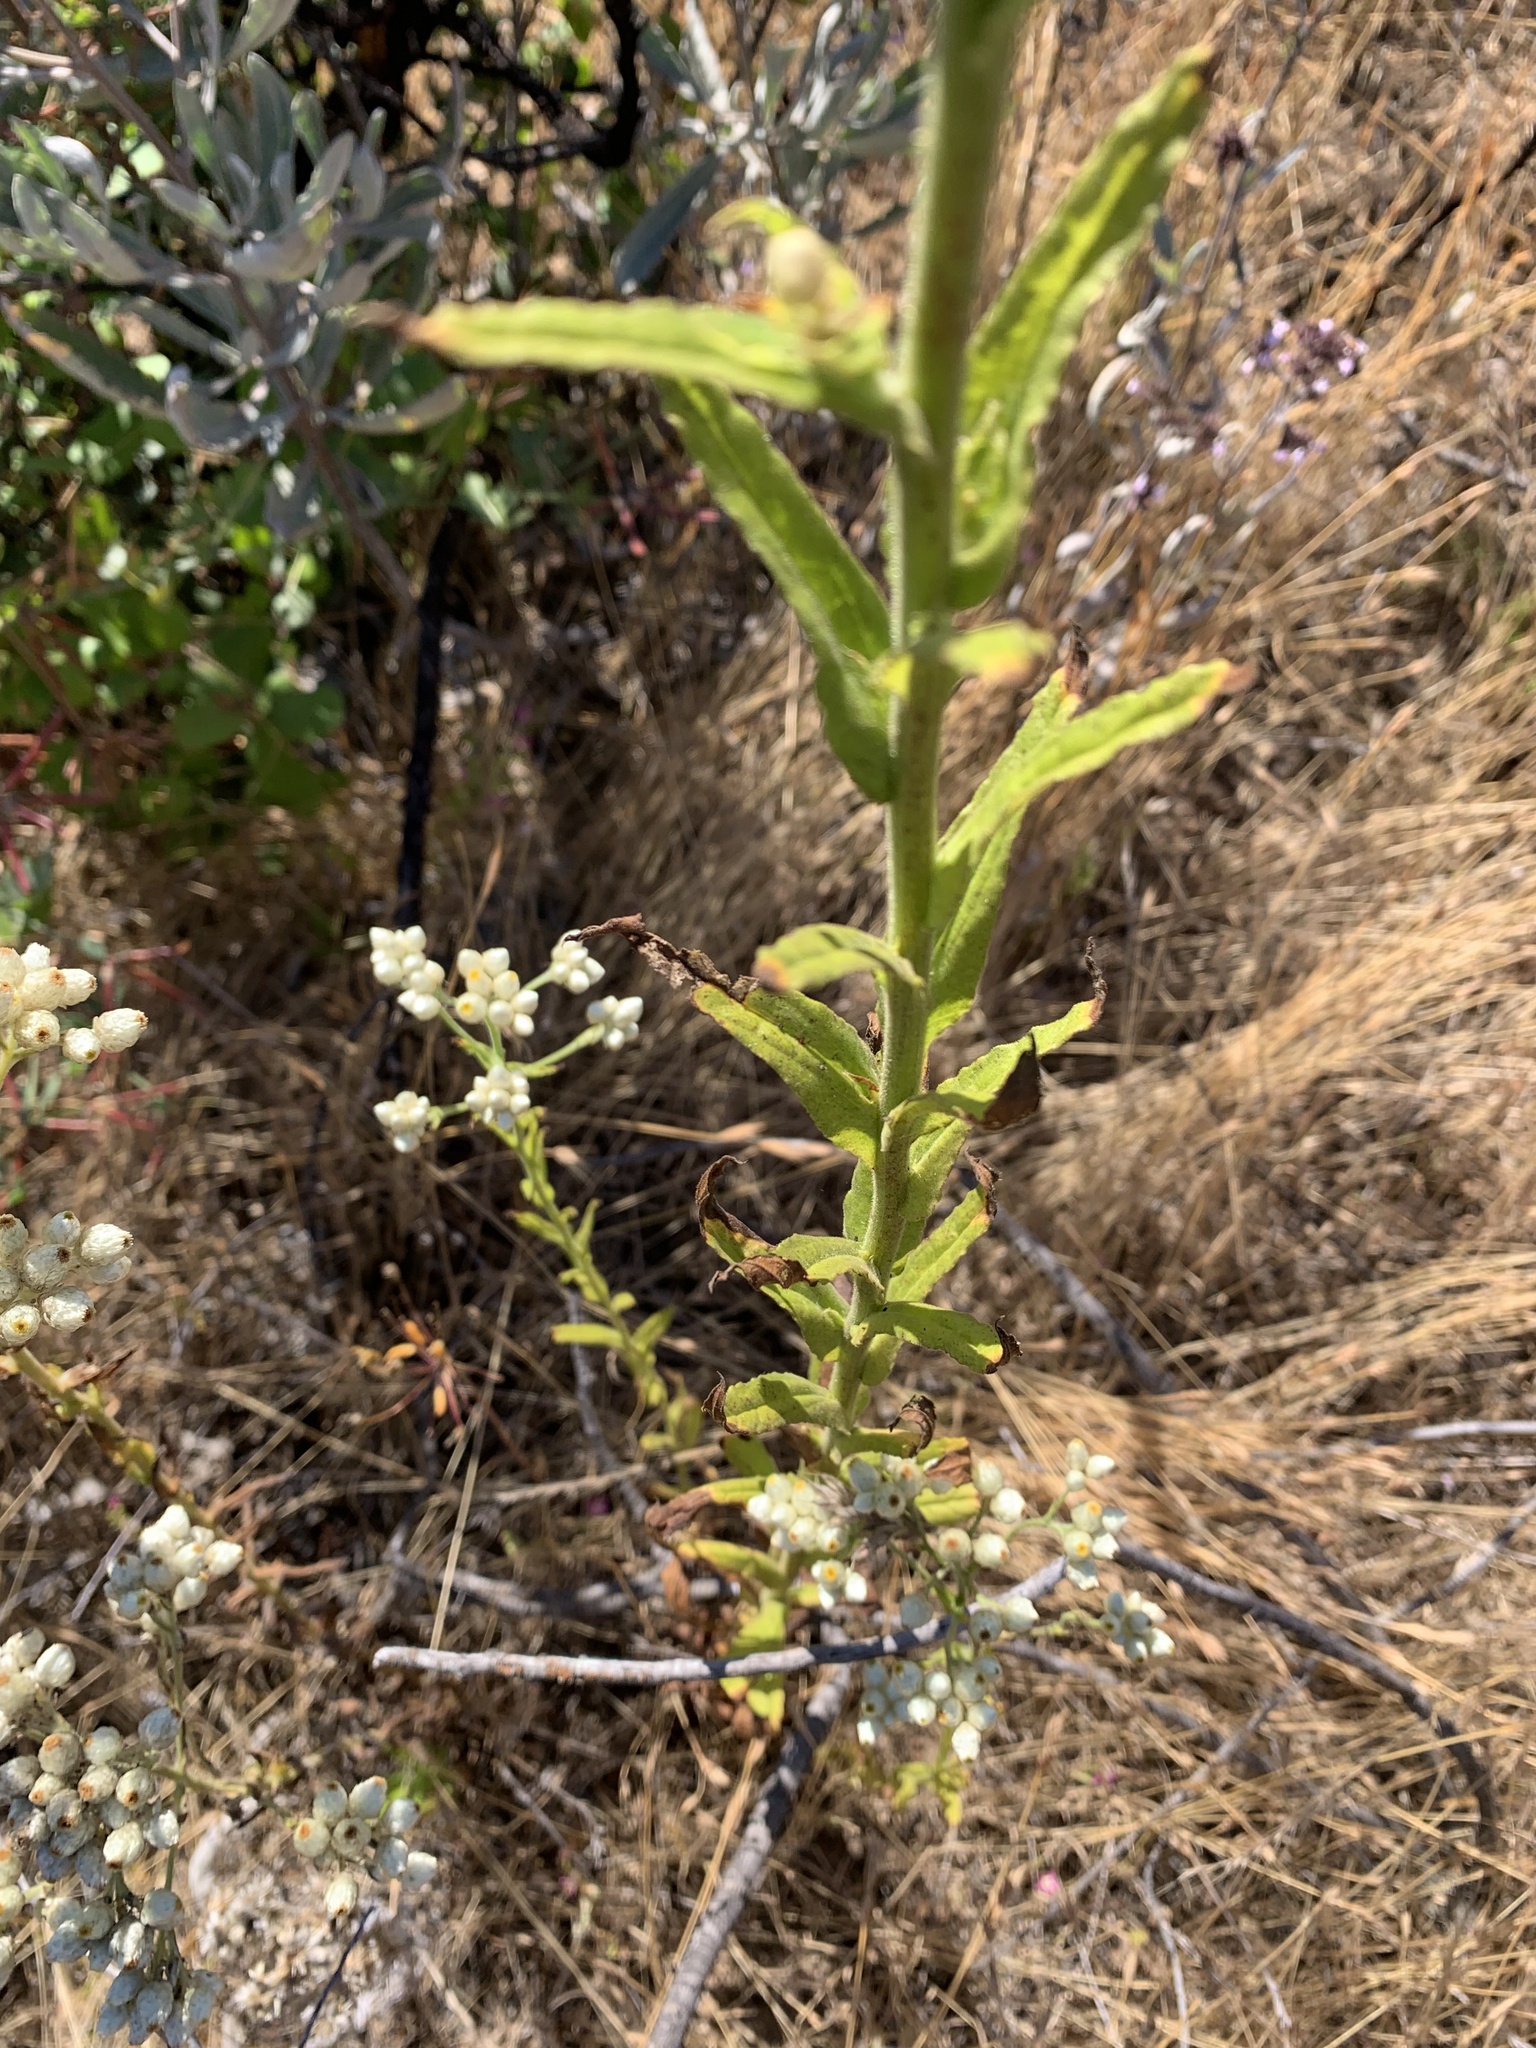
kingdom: Plantae
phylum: Tracheophyta
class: Magnoliopsida
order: Asterales
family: Asteraceae
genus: Pseudognaphalium
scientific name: Pseudognaphalium californicum
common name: California rabbit-tobacco
